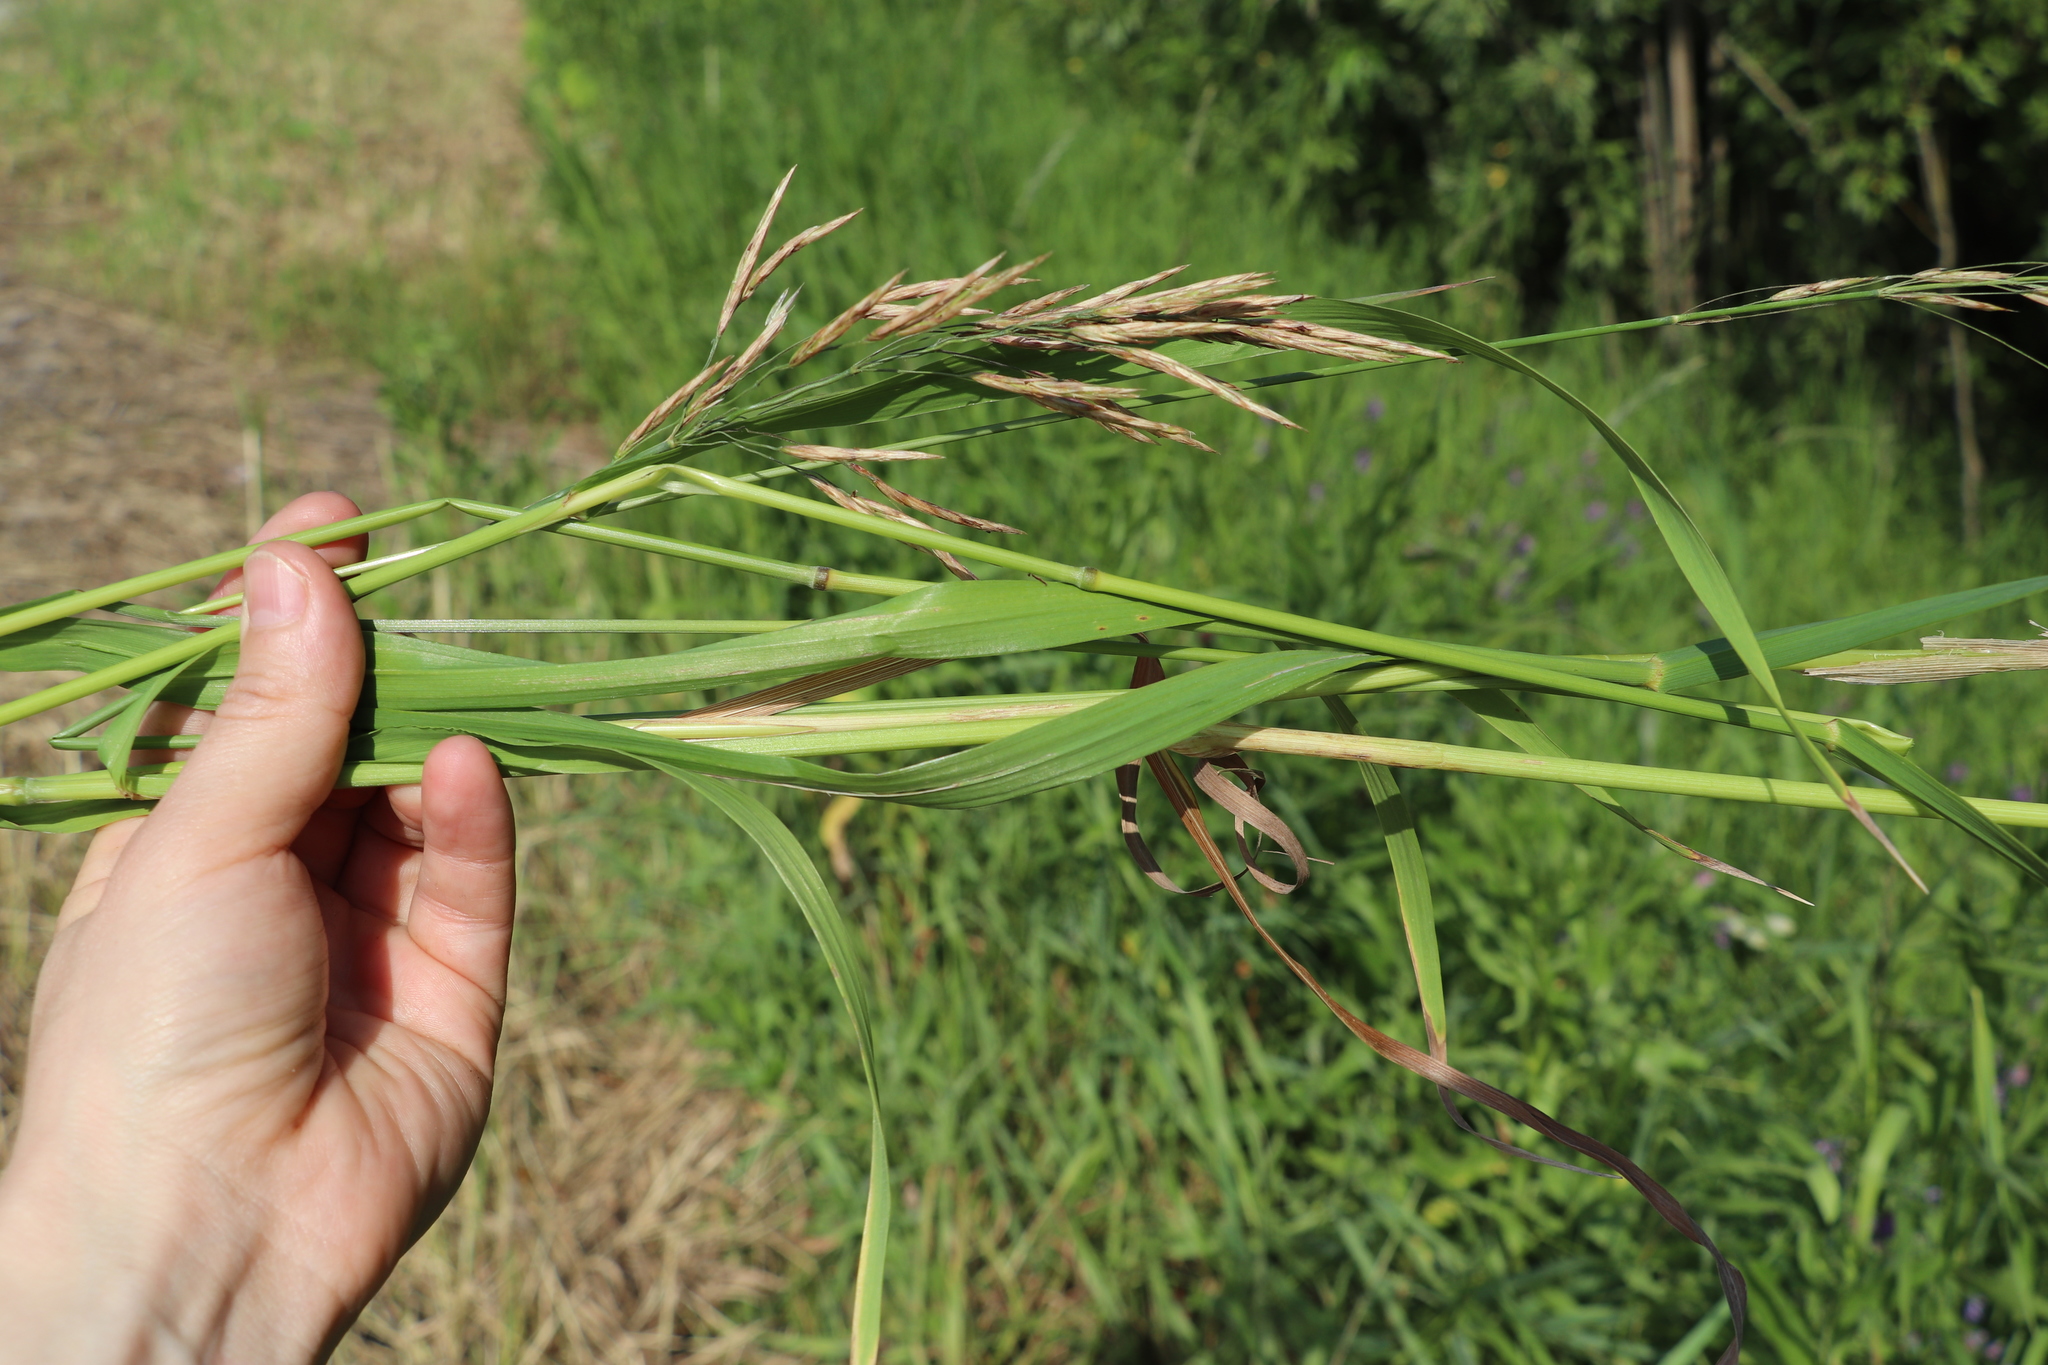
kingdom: Plantae
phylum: Tracheophyta
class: Liliopsida
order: Poales
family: Poaceae
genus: Bromus
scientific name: Bromus inermis
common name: Smooth brome
